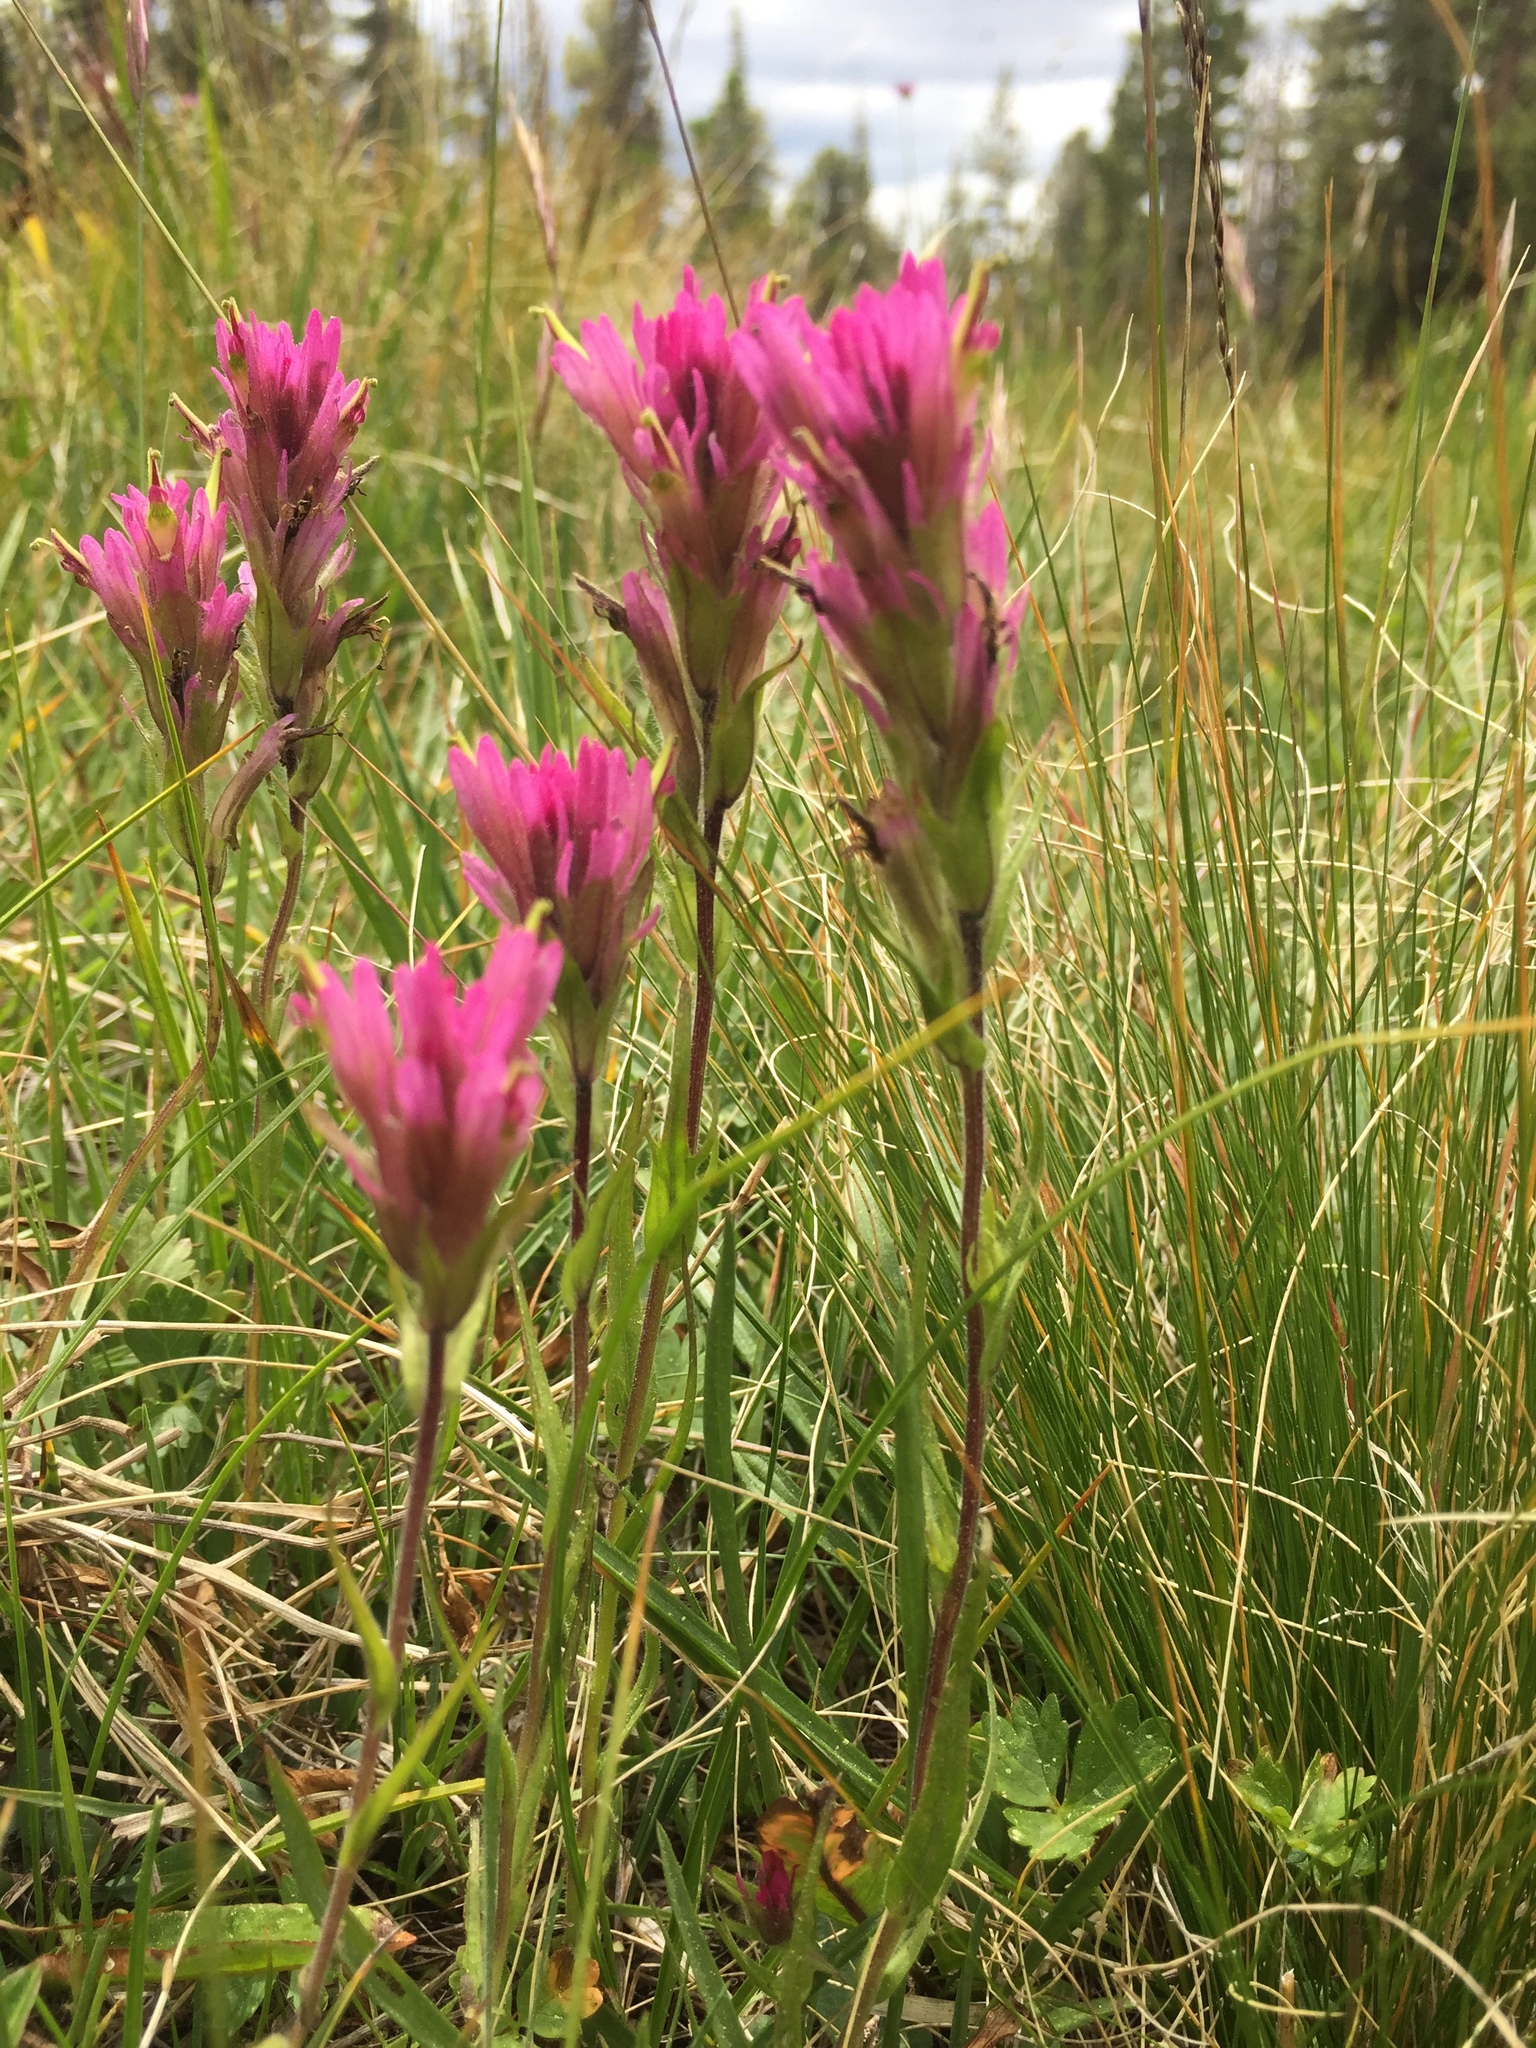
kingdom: Plantae
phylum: Tracheophyta
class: Magnoliopsida
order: Lamiales
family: Orobanchaceae
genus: Castilleja
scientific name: Castilleja lemmonii
